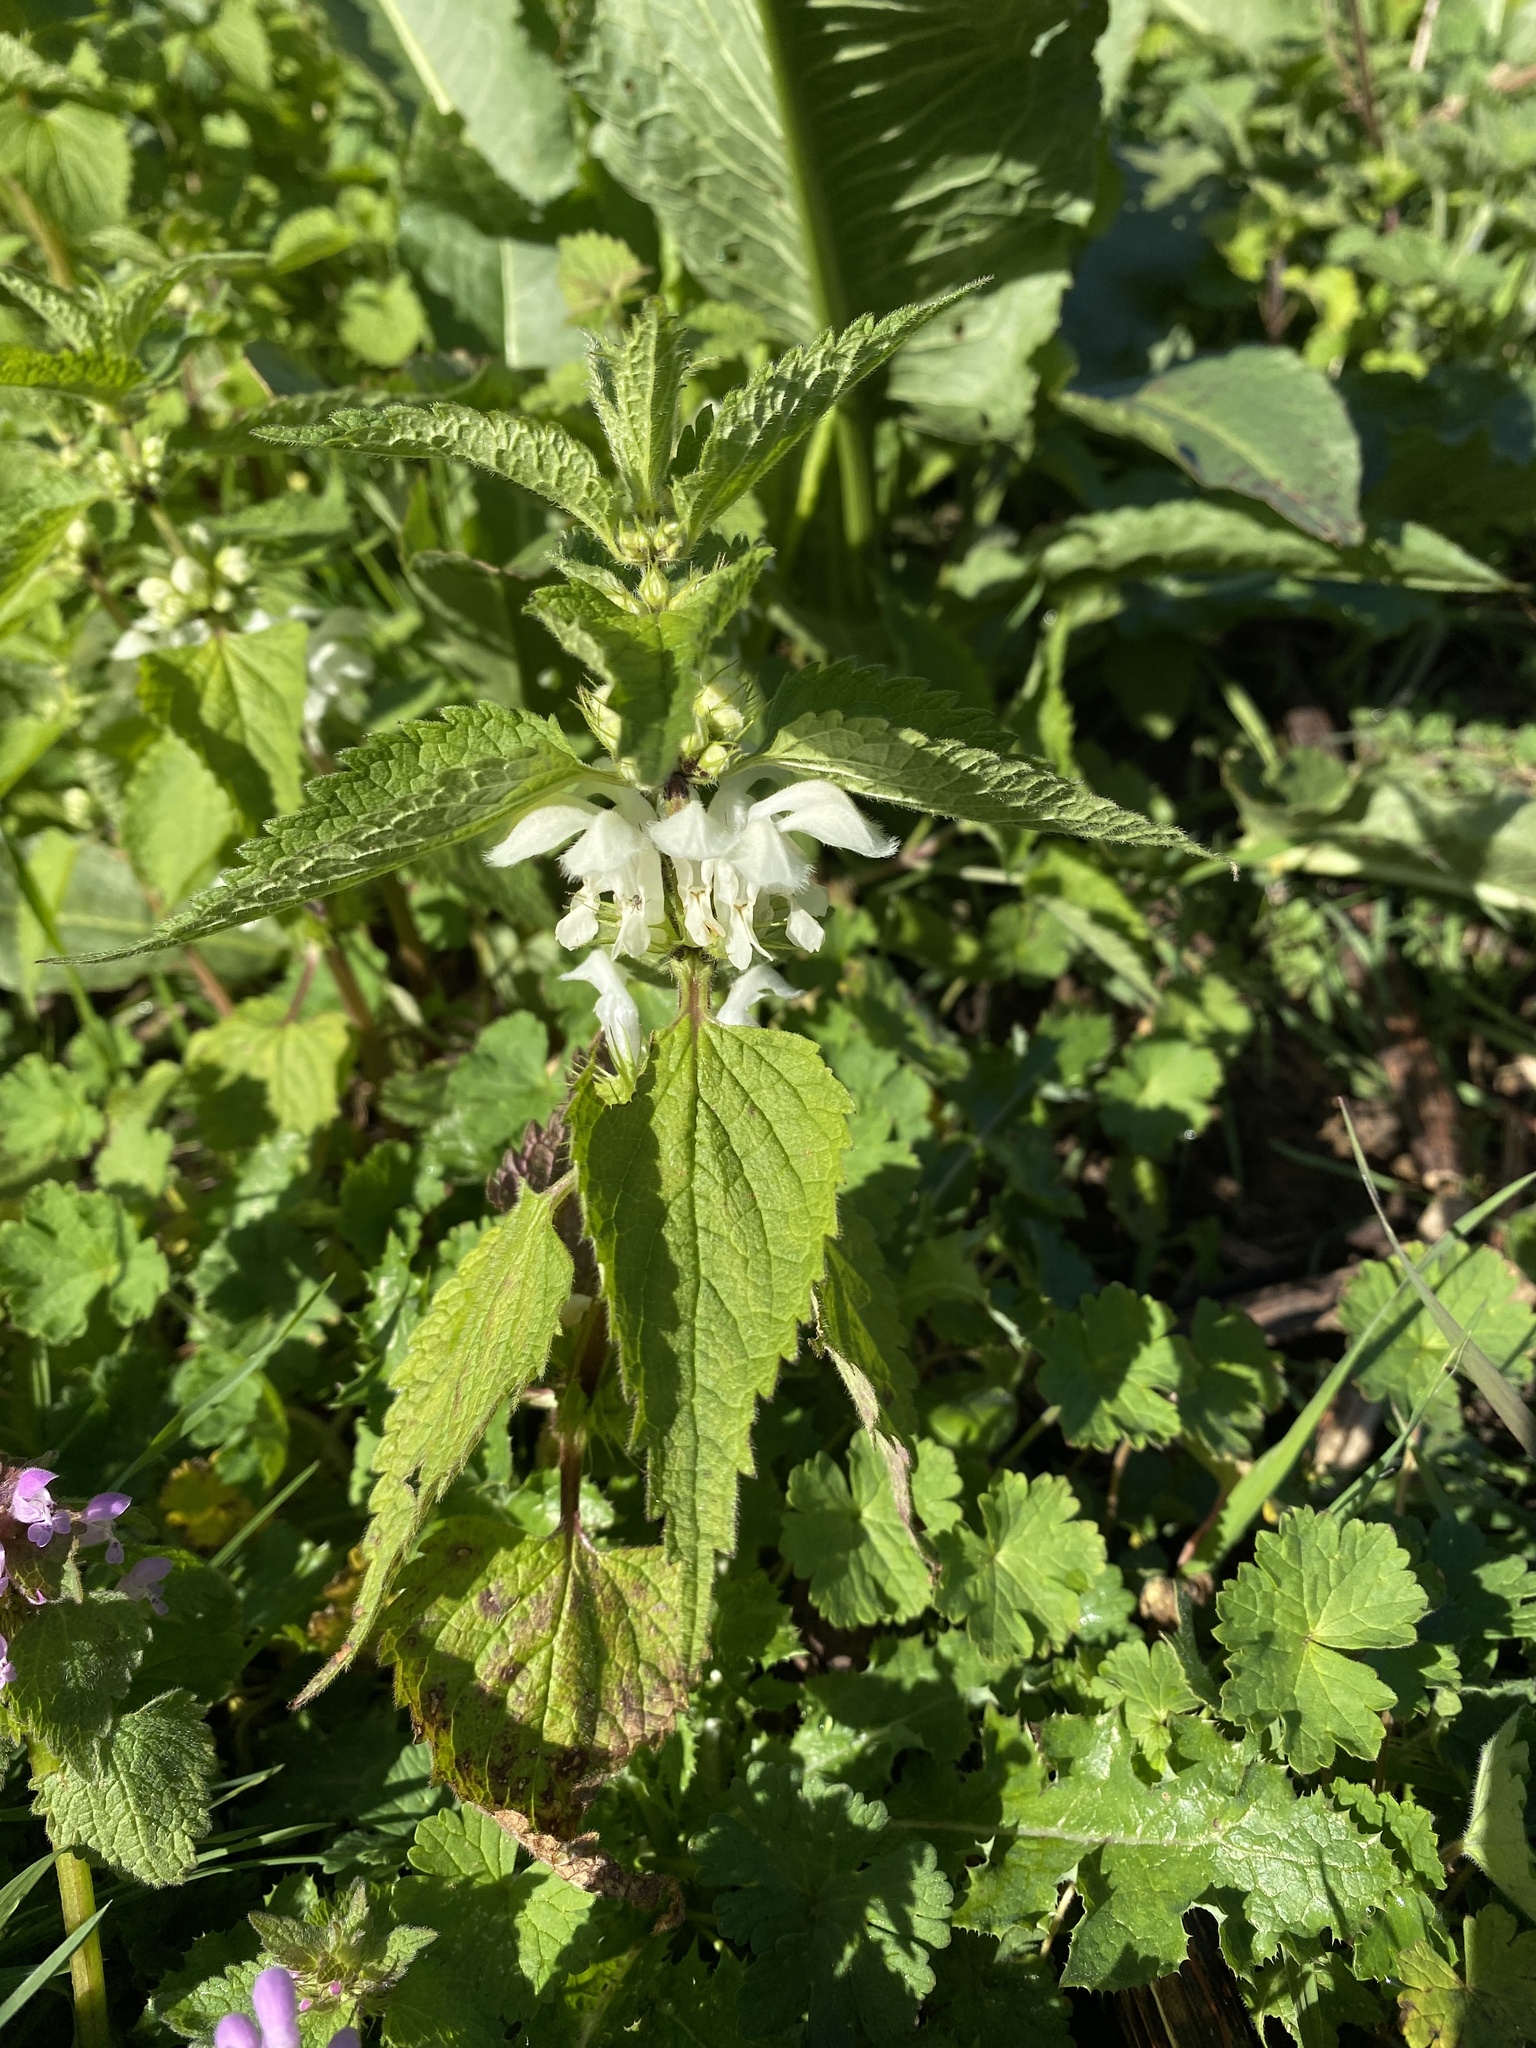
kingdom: Plantae
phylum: Tracheophyta
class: Magnoliopsida
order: Lamiales
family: Lamiaceae
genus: Lamium
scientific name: Lamium album
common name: White dead-nettle
